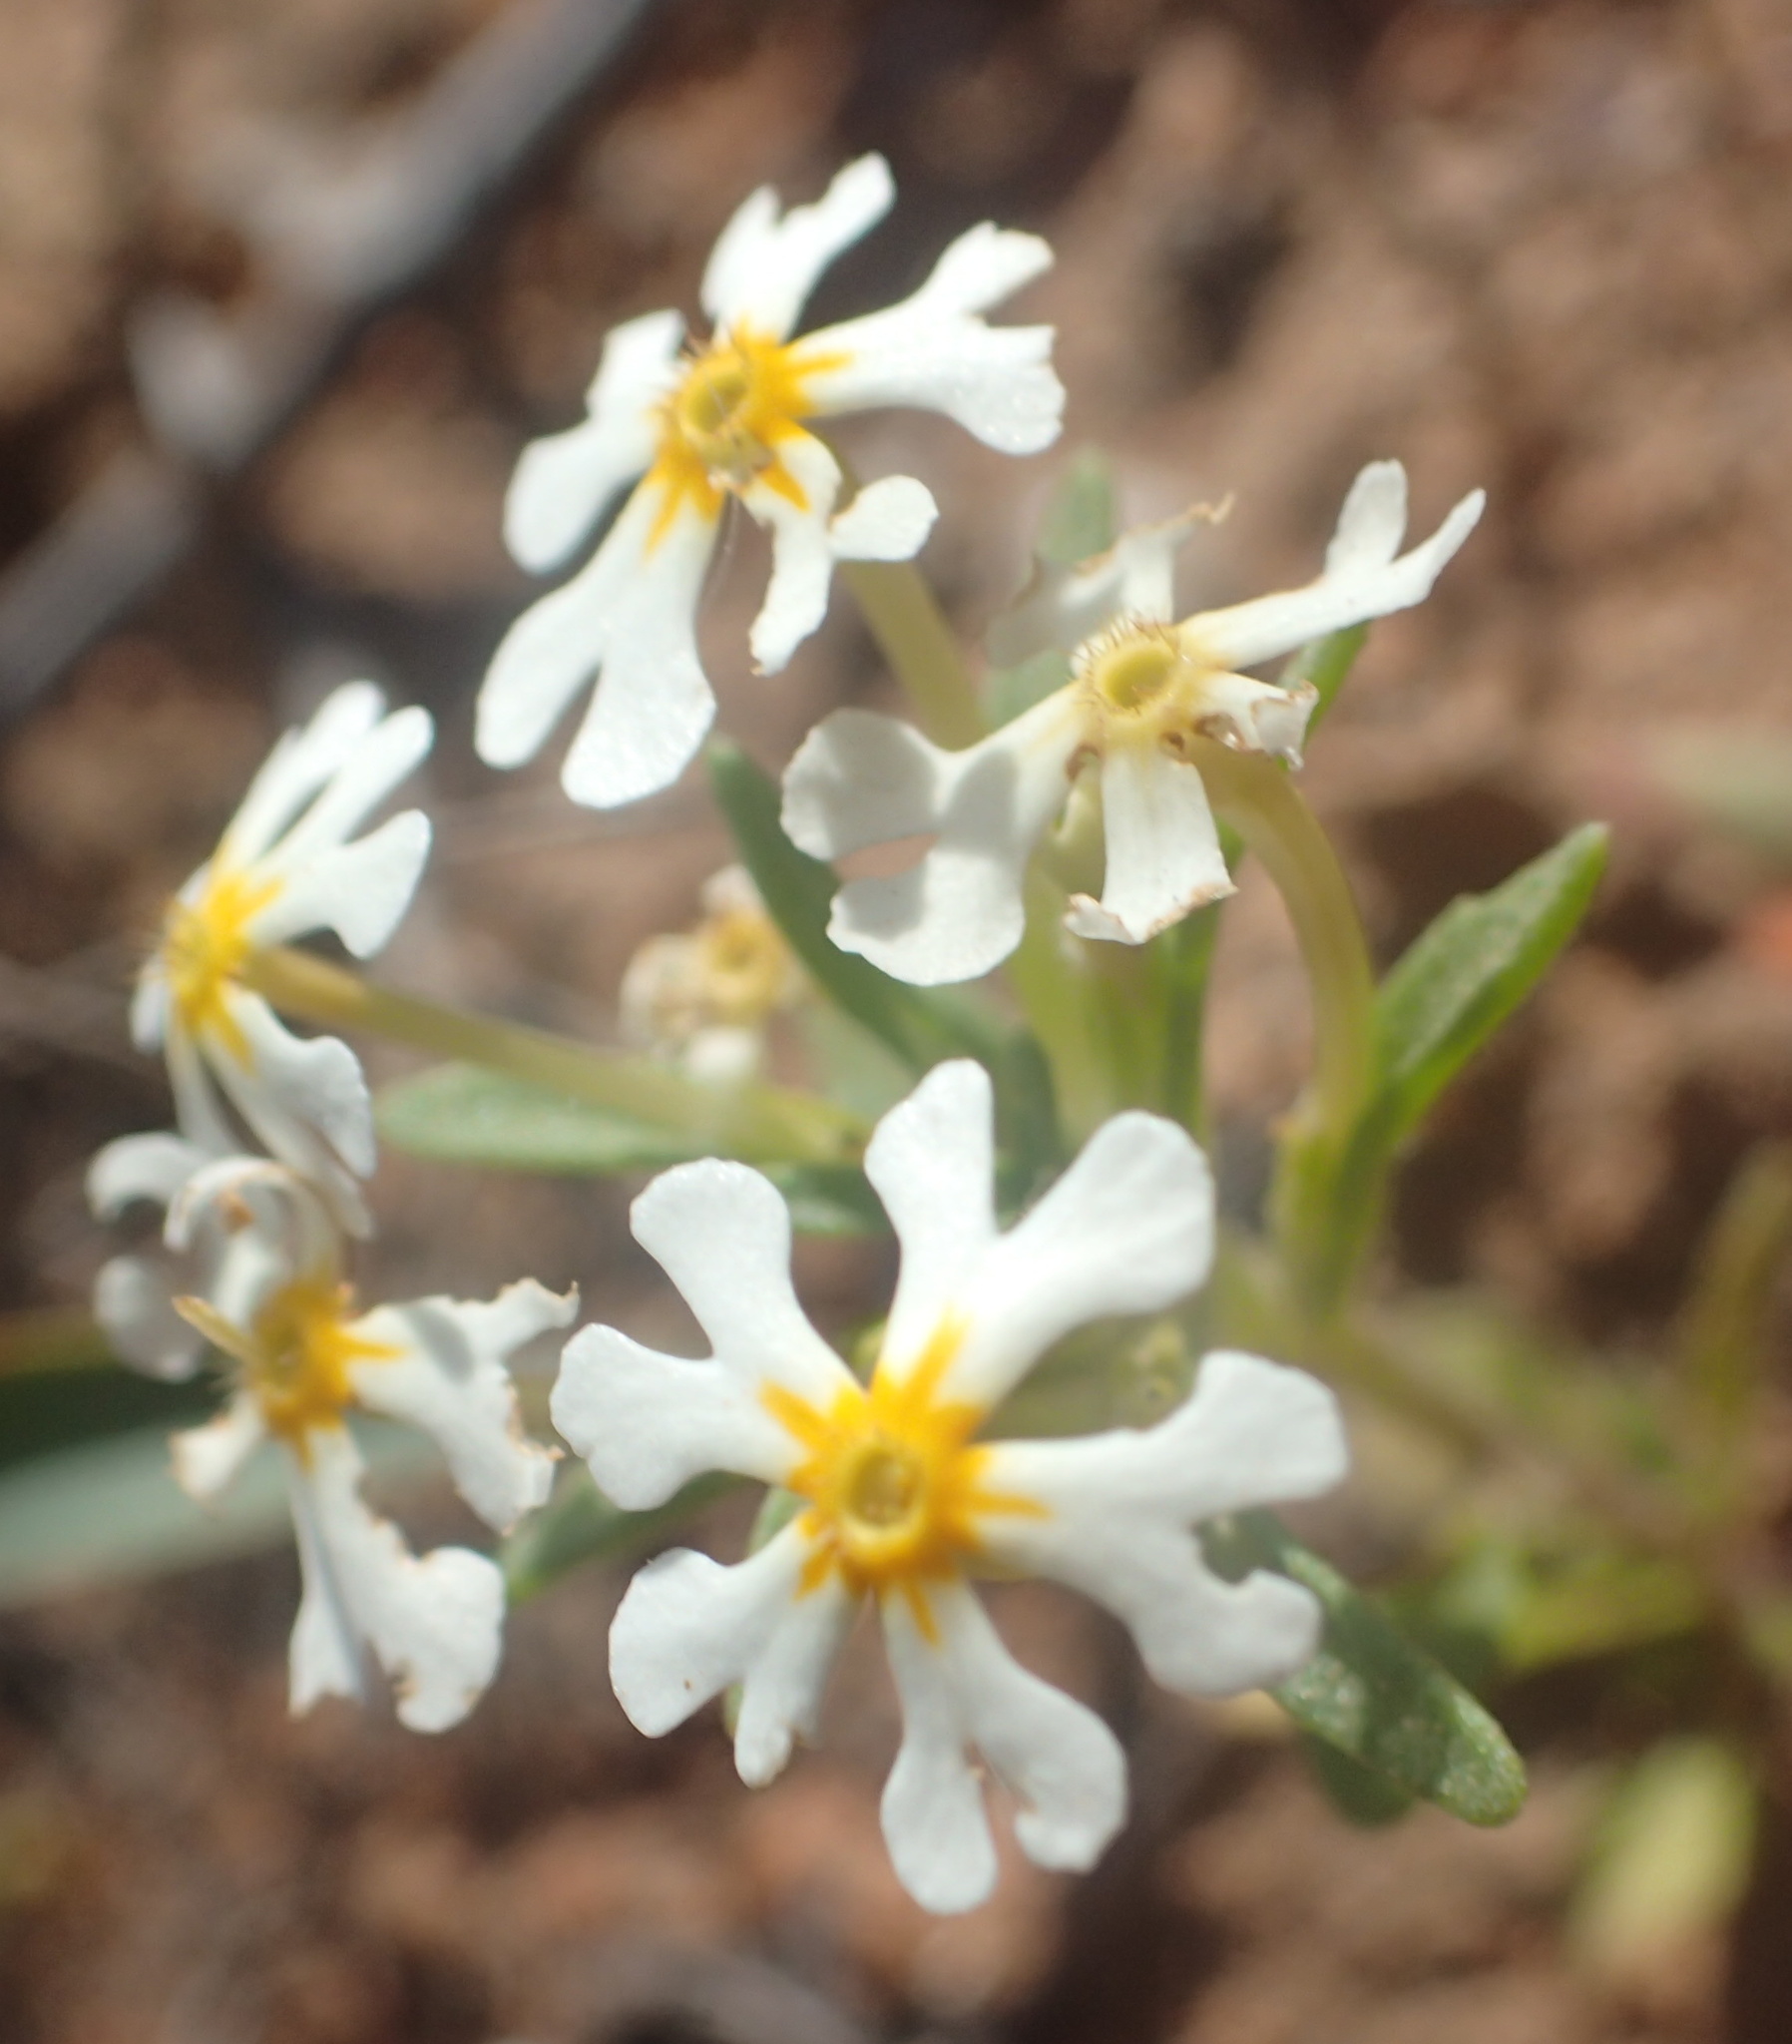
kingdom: Plantae
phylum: Tracheophyta
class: Magnoliopsida
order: Lamiales
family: Scrophulariaceae
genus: Zaluzianskya
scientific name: Zaluzianskya affinis
